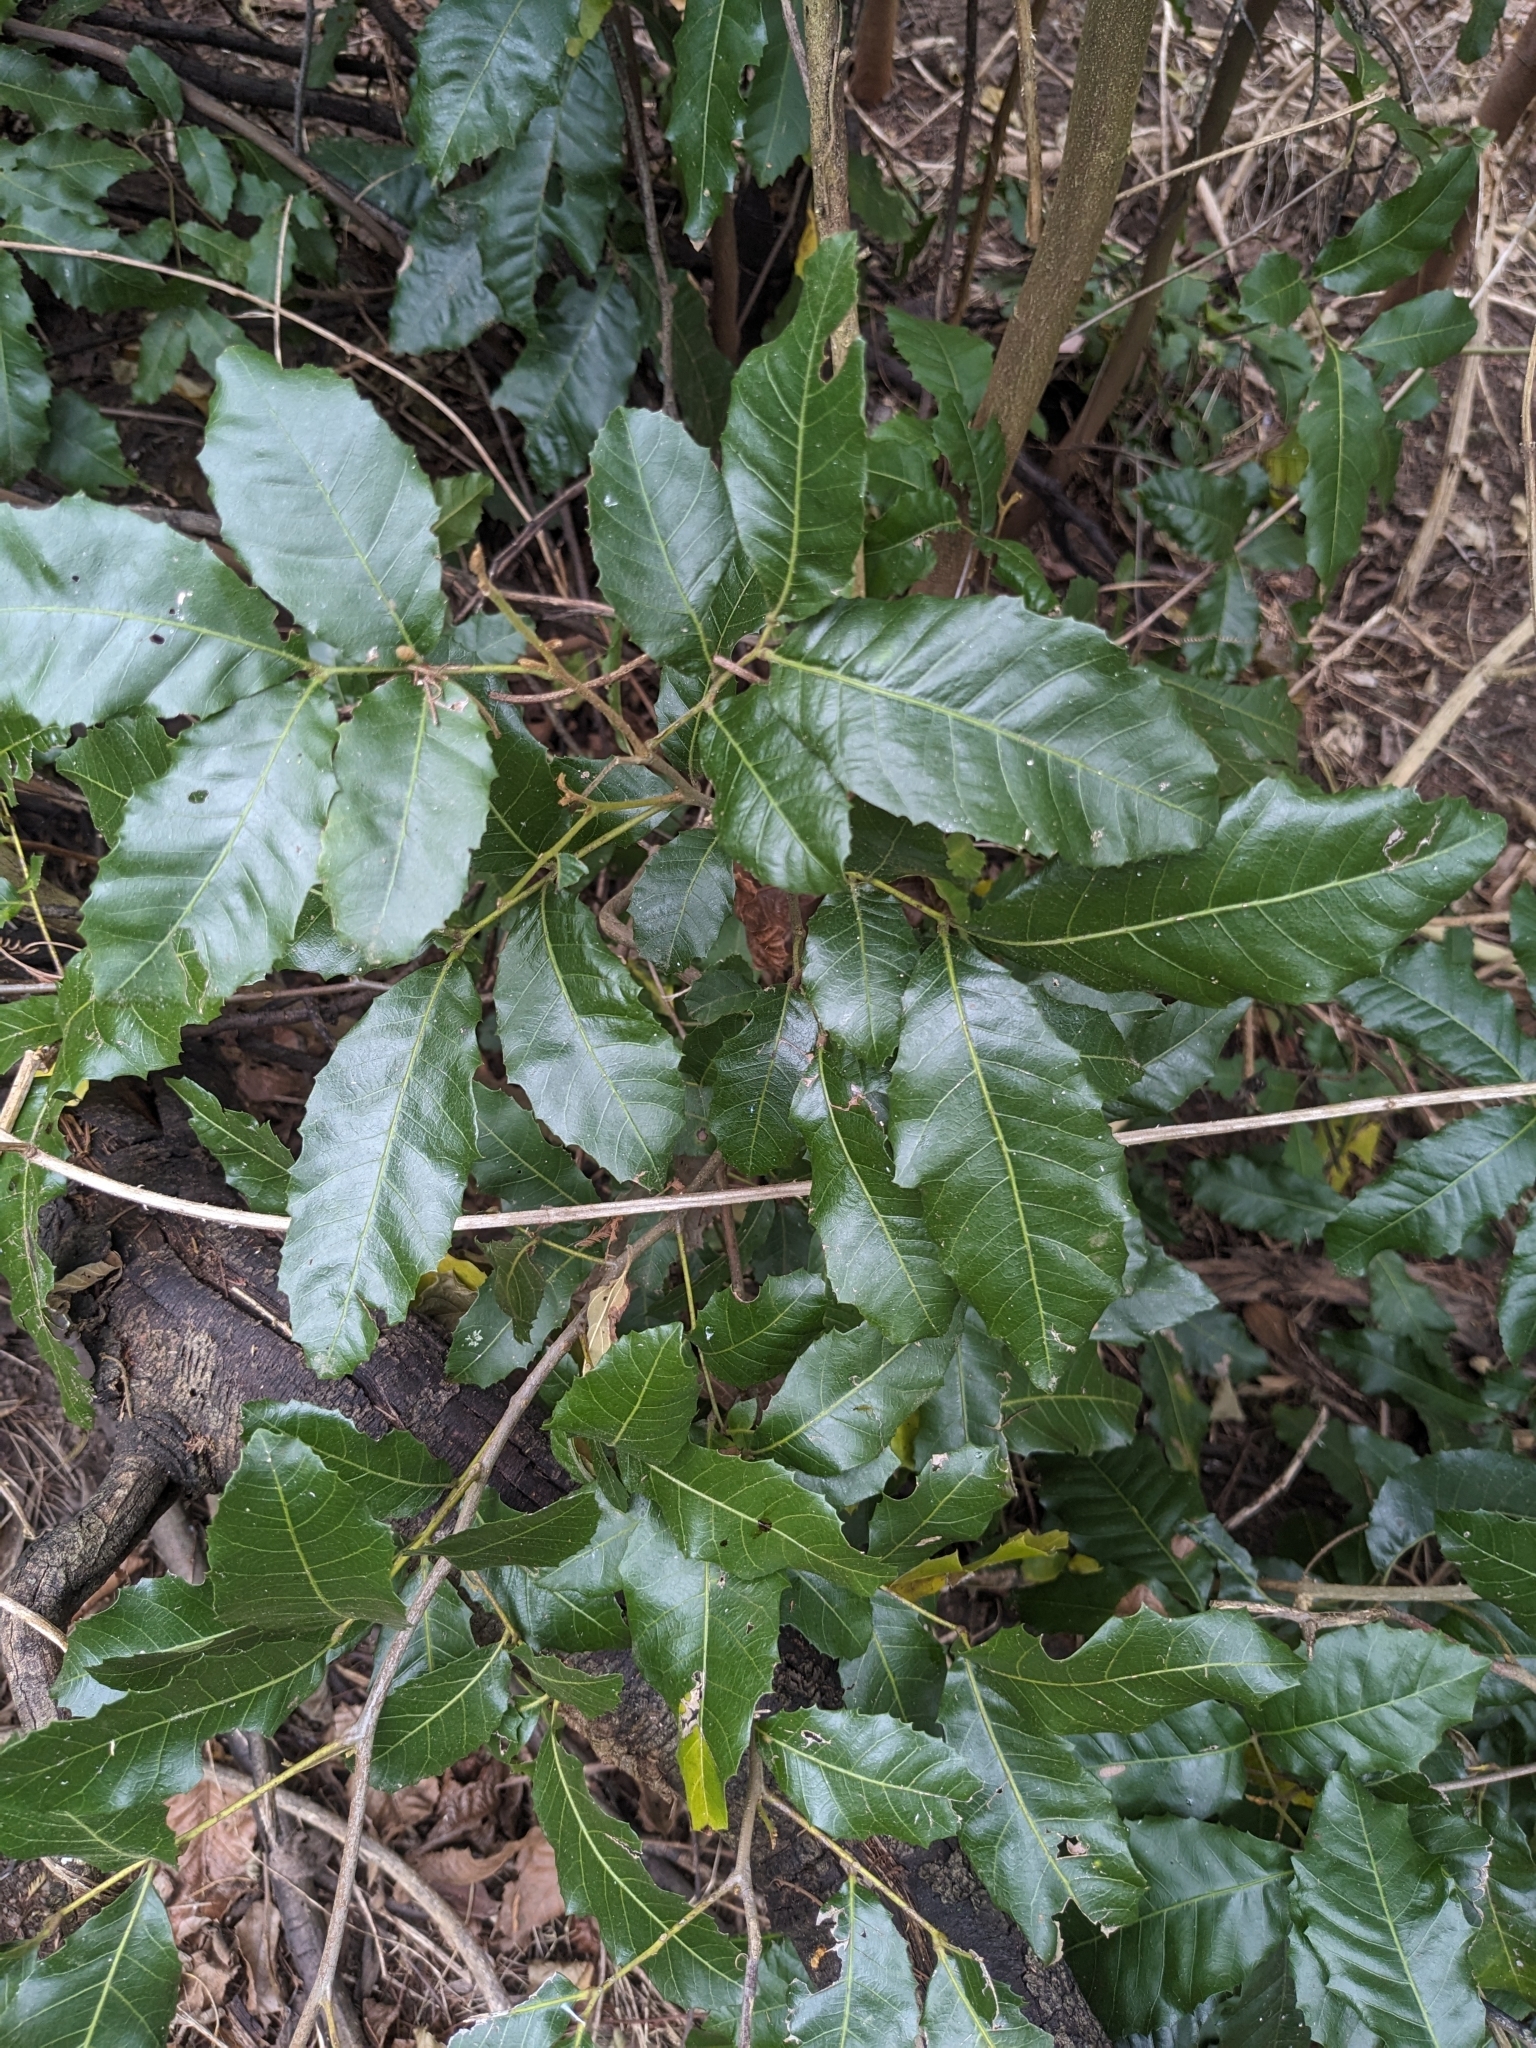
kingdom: Plantae
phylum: Tracheophyta
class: Magnoliopsida
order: Sapindales
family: Sapindaceae
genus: Elattostachys
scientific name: Elattostachys xylocarpa
